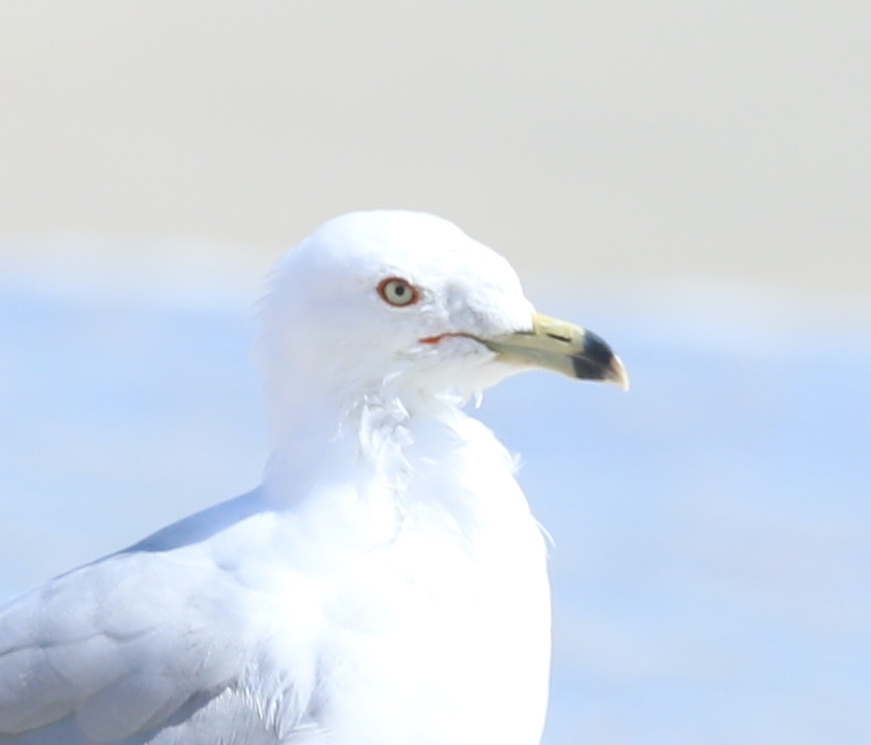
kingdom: Animalia
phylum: Chordata
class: Aves
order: Charadriiformes
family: Laridae
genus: Larus
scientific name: Larus delawarensis
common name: Ring-billed gull
